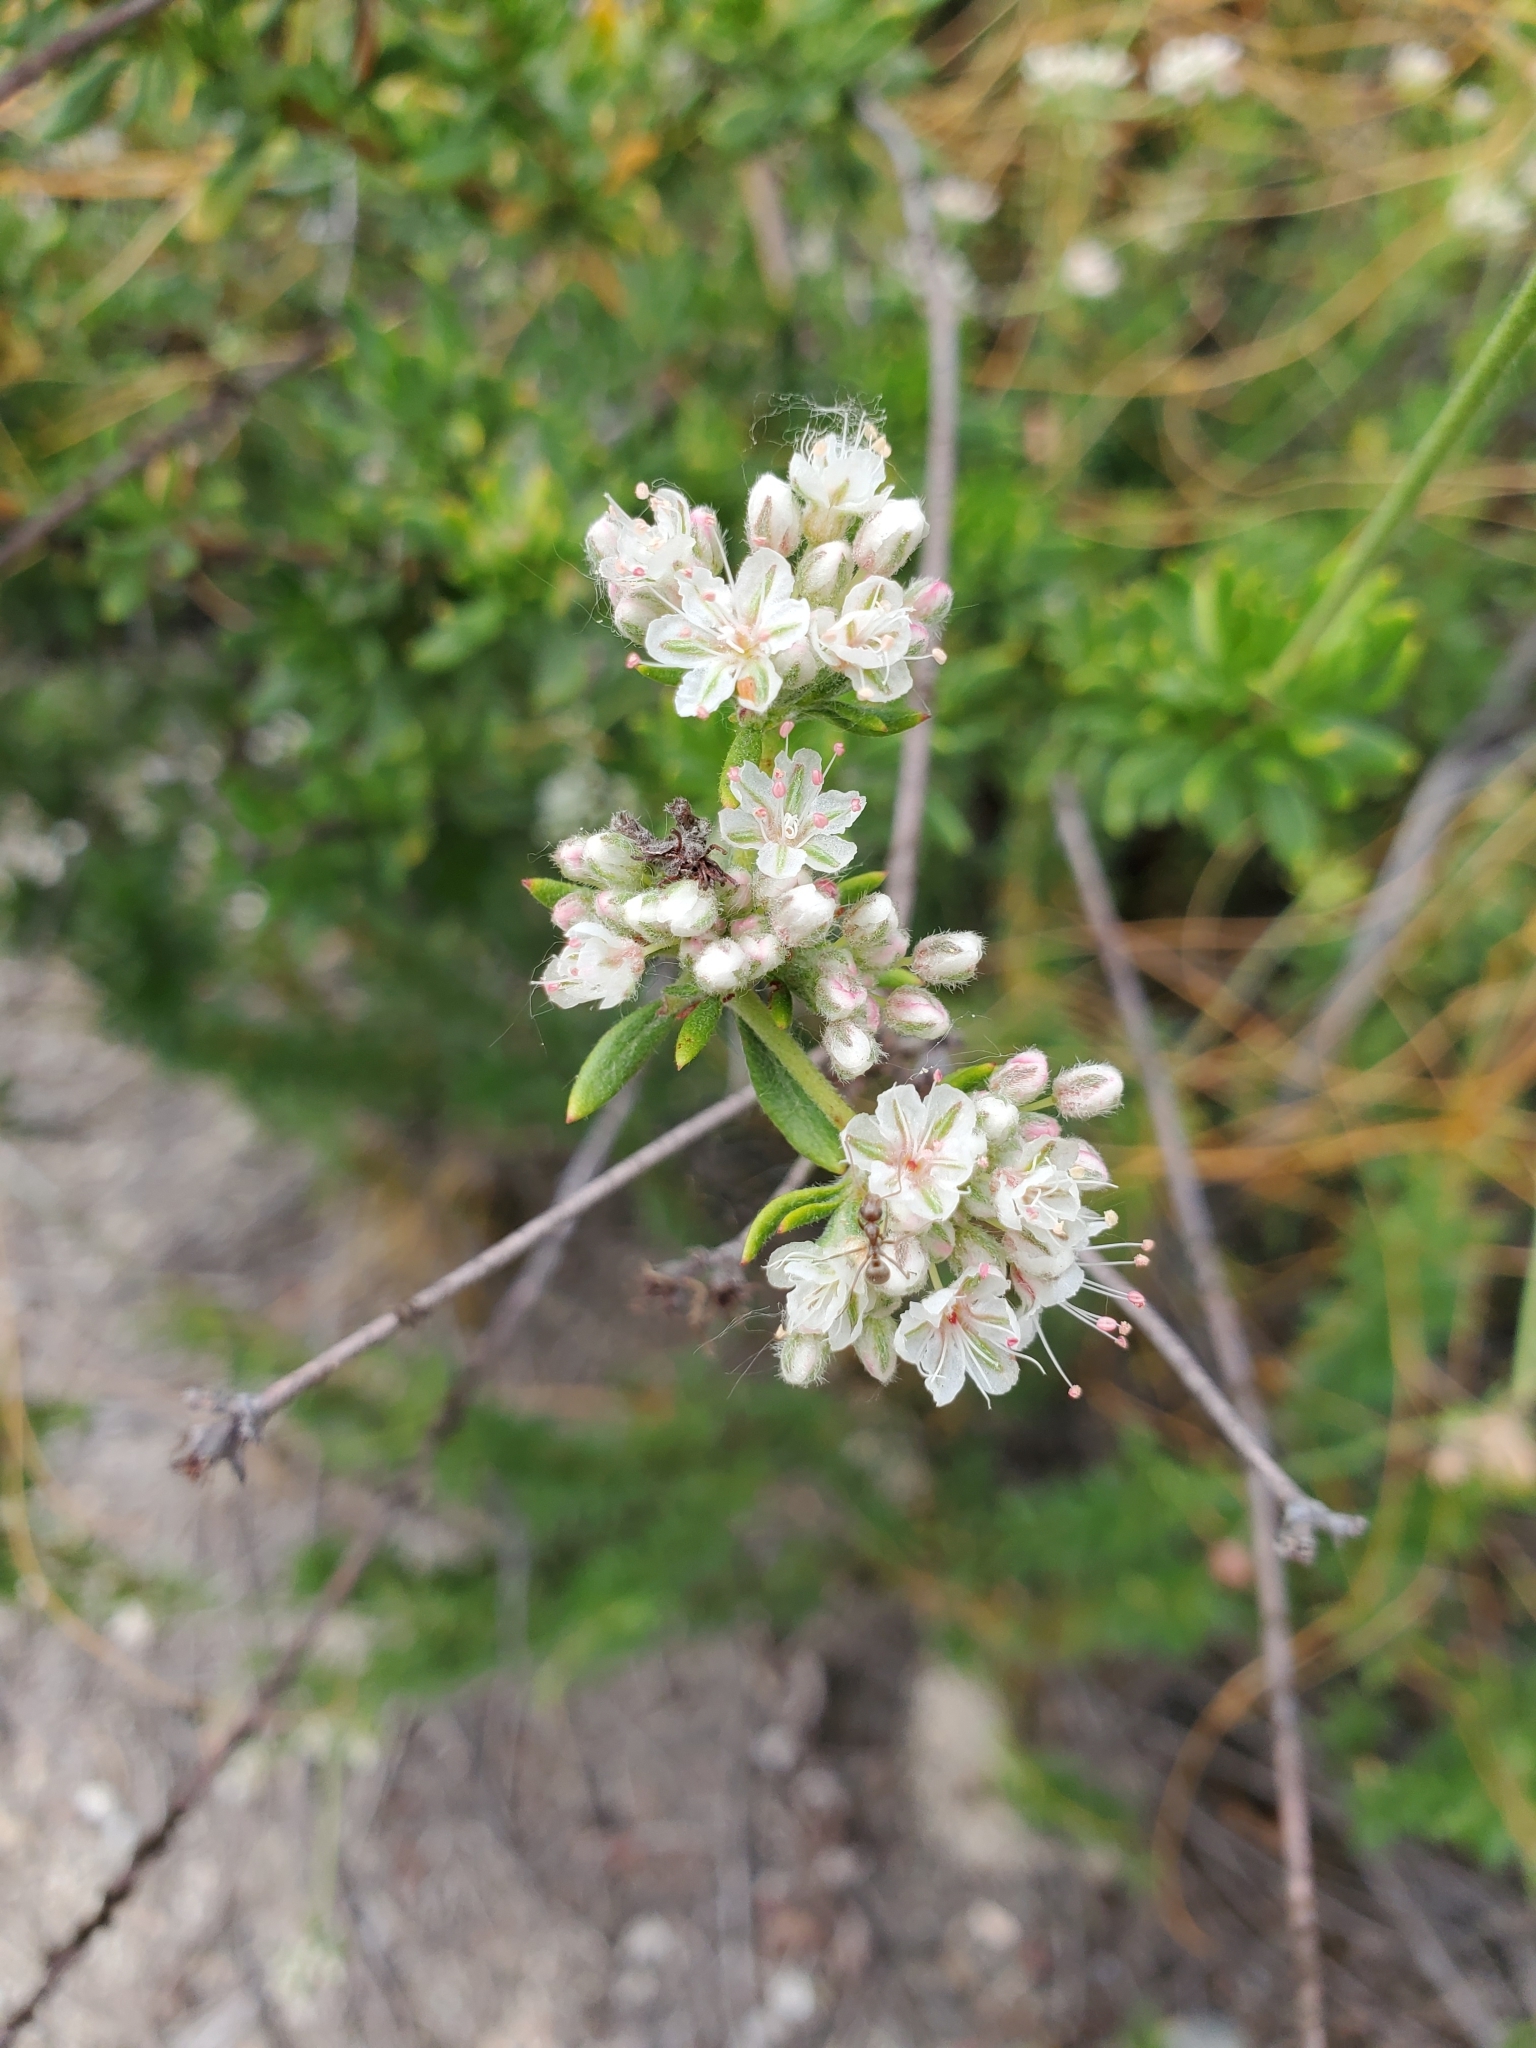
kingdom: Plantae
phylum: Tracheophyta
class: Magnoliopsida
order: Caryophyllales
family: Polygonaceae
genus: Eriogonum
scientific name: Eriogonum fasciculatum
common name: California wild buckwheat
